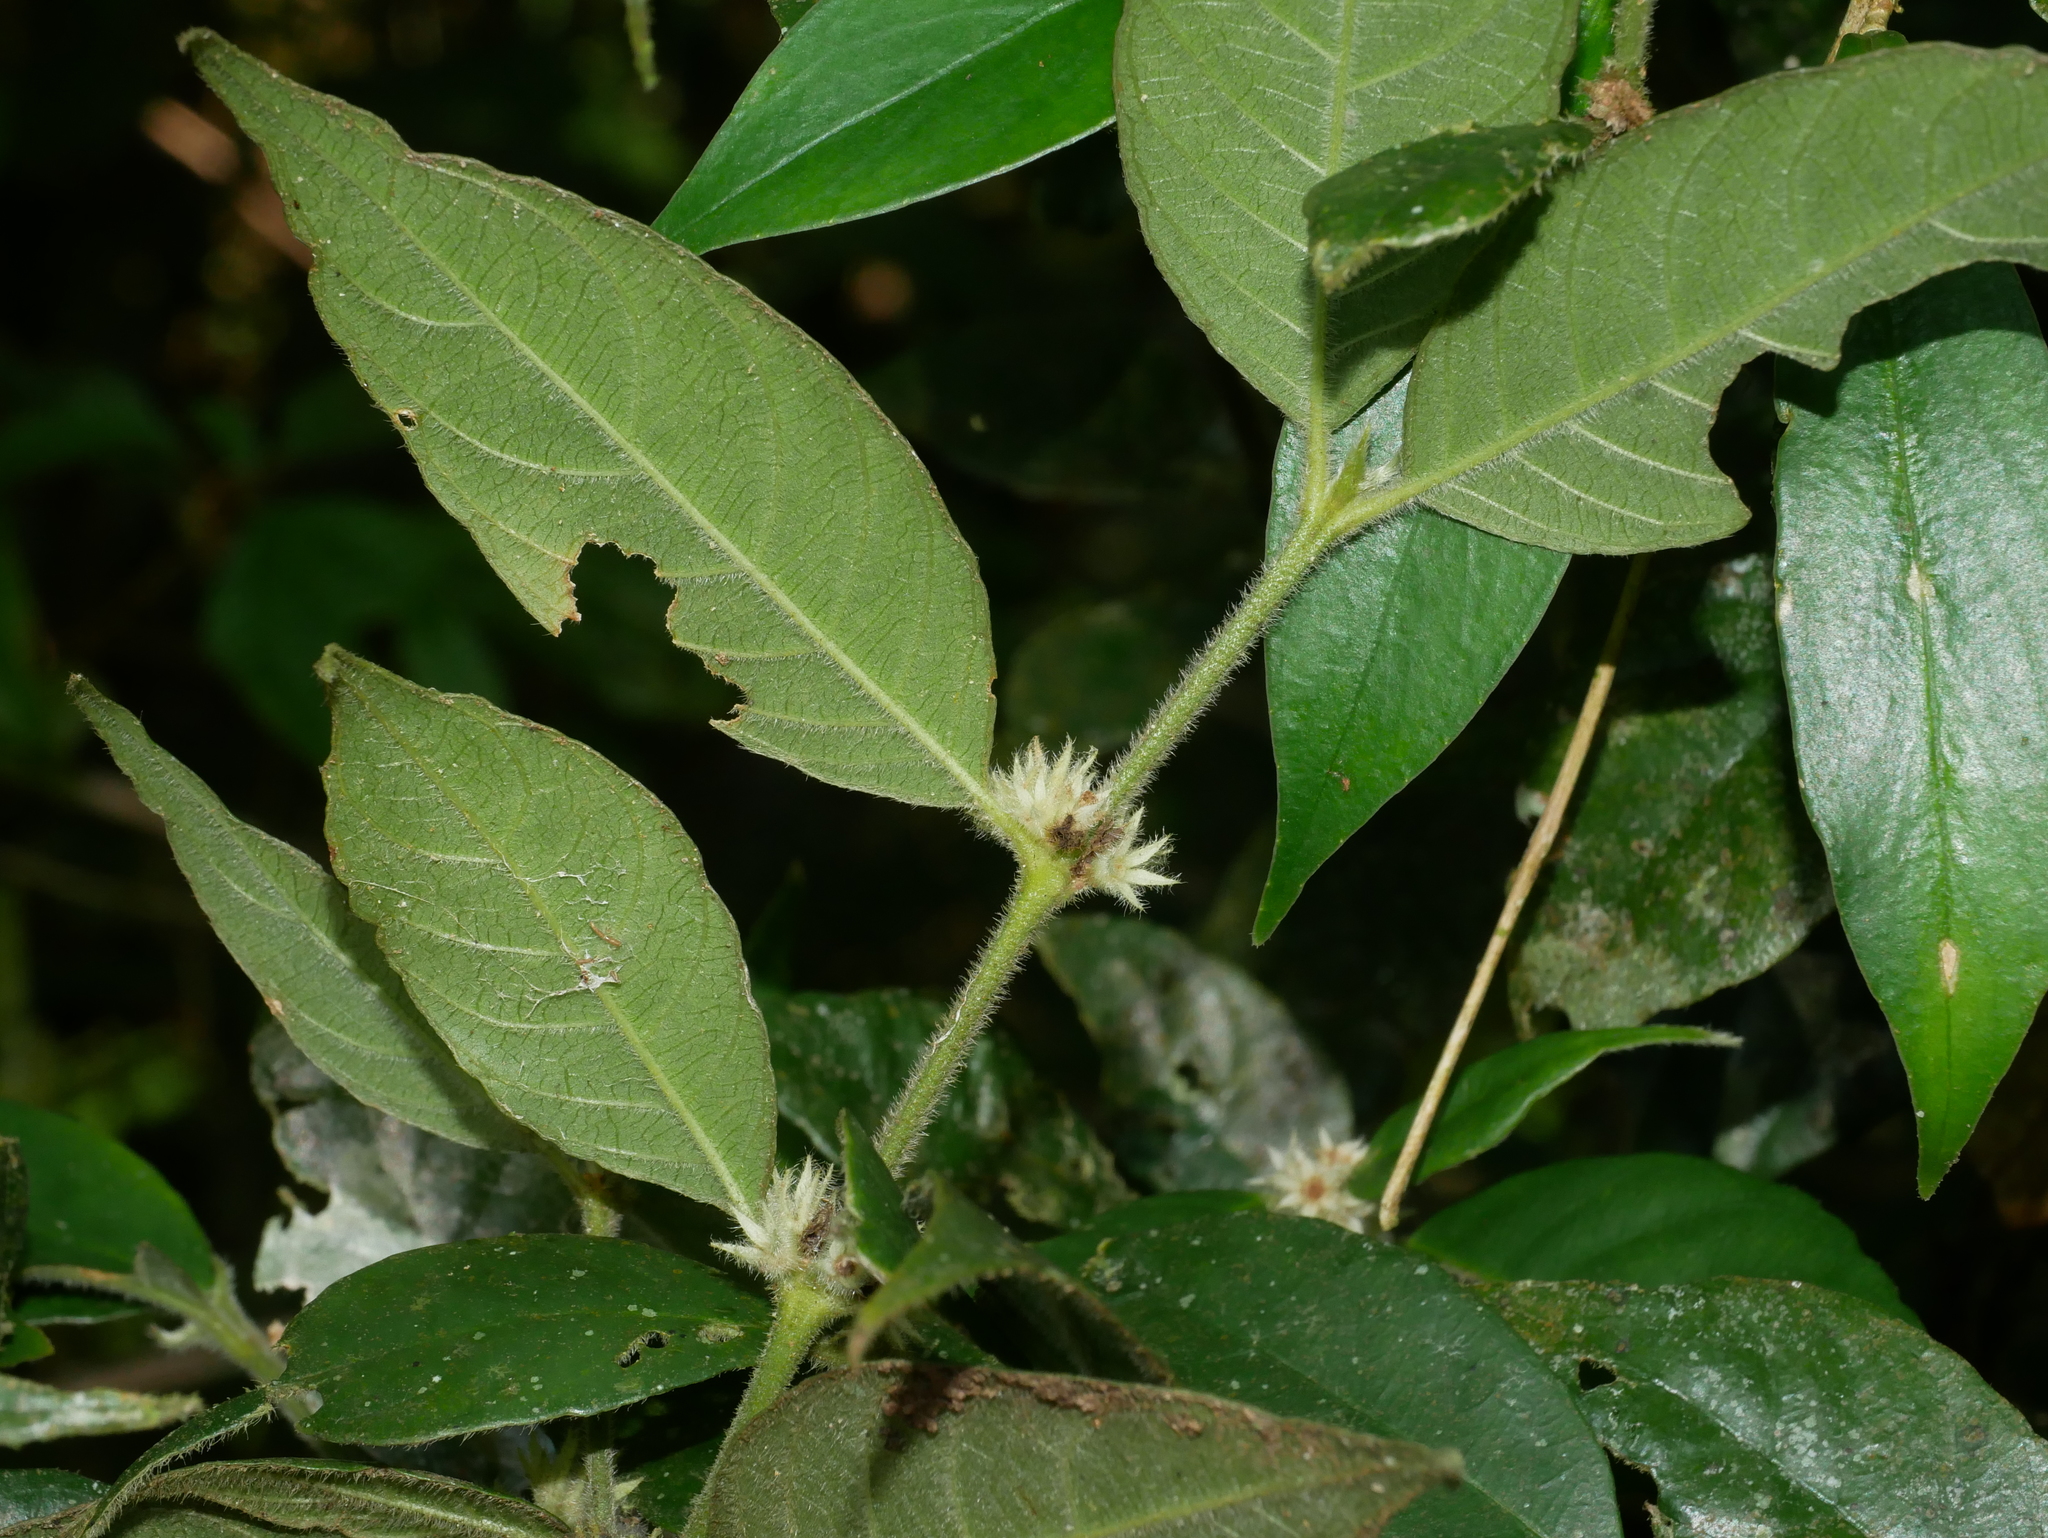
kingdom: Plantae
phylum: Tracheophyta
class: Magnoliopsida
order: Gentianales
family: Rubiaceae
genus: Lasianthus
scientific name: Lasianthus curtisii
